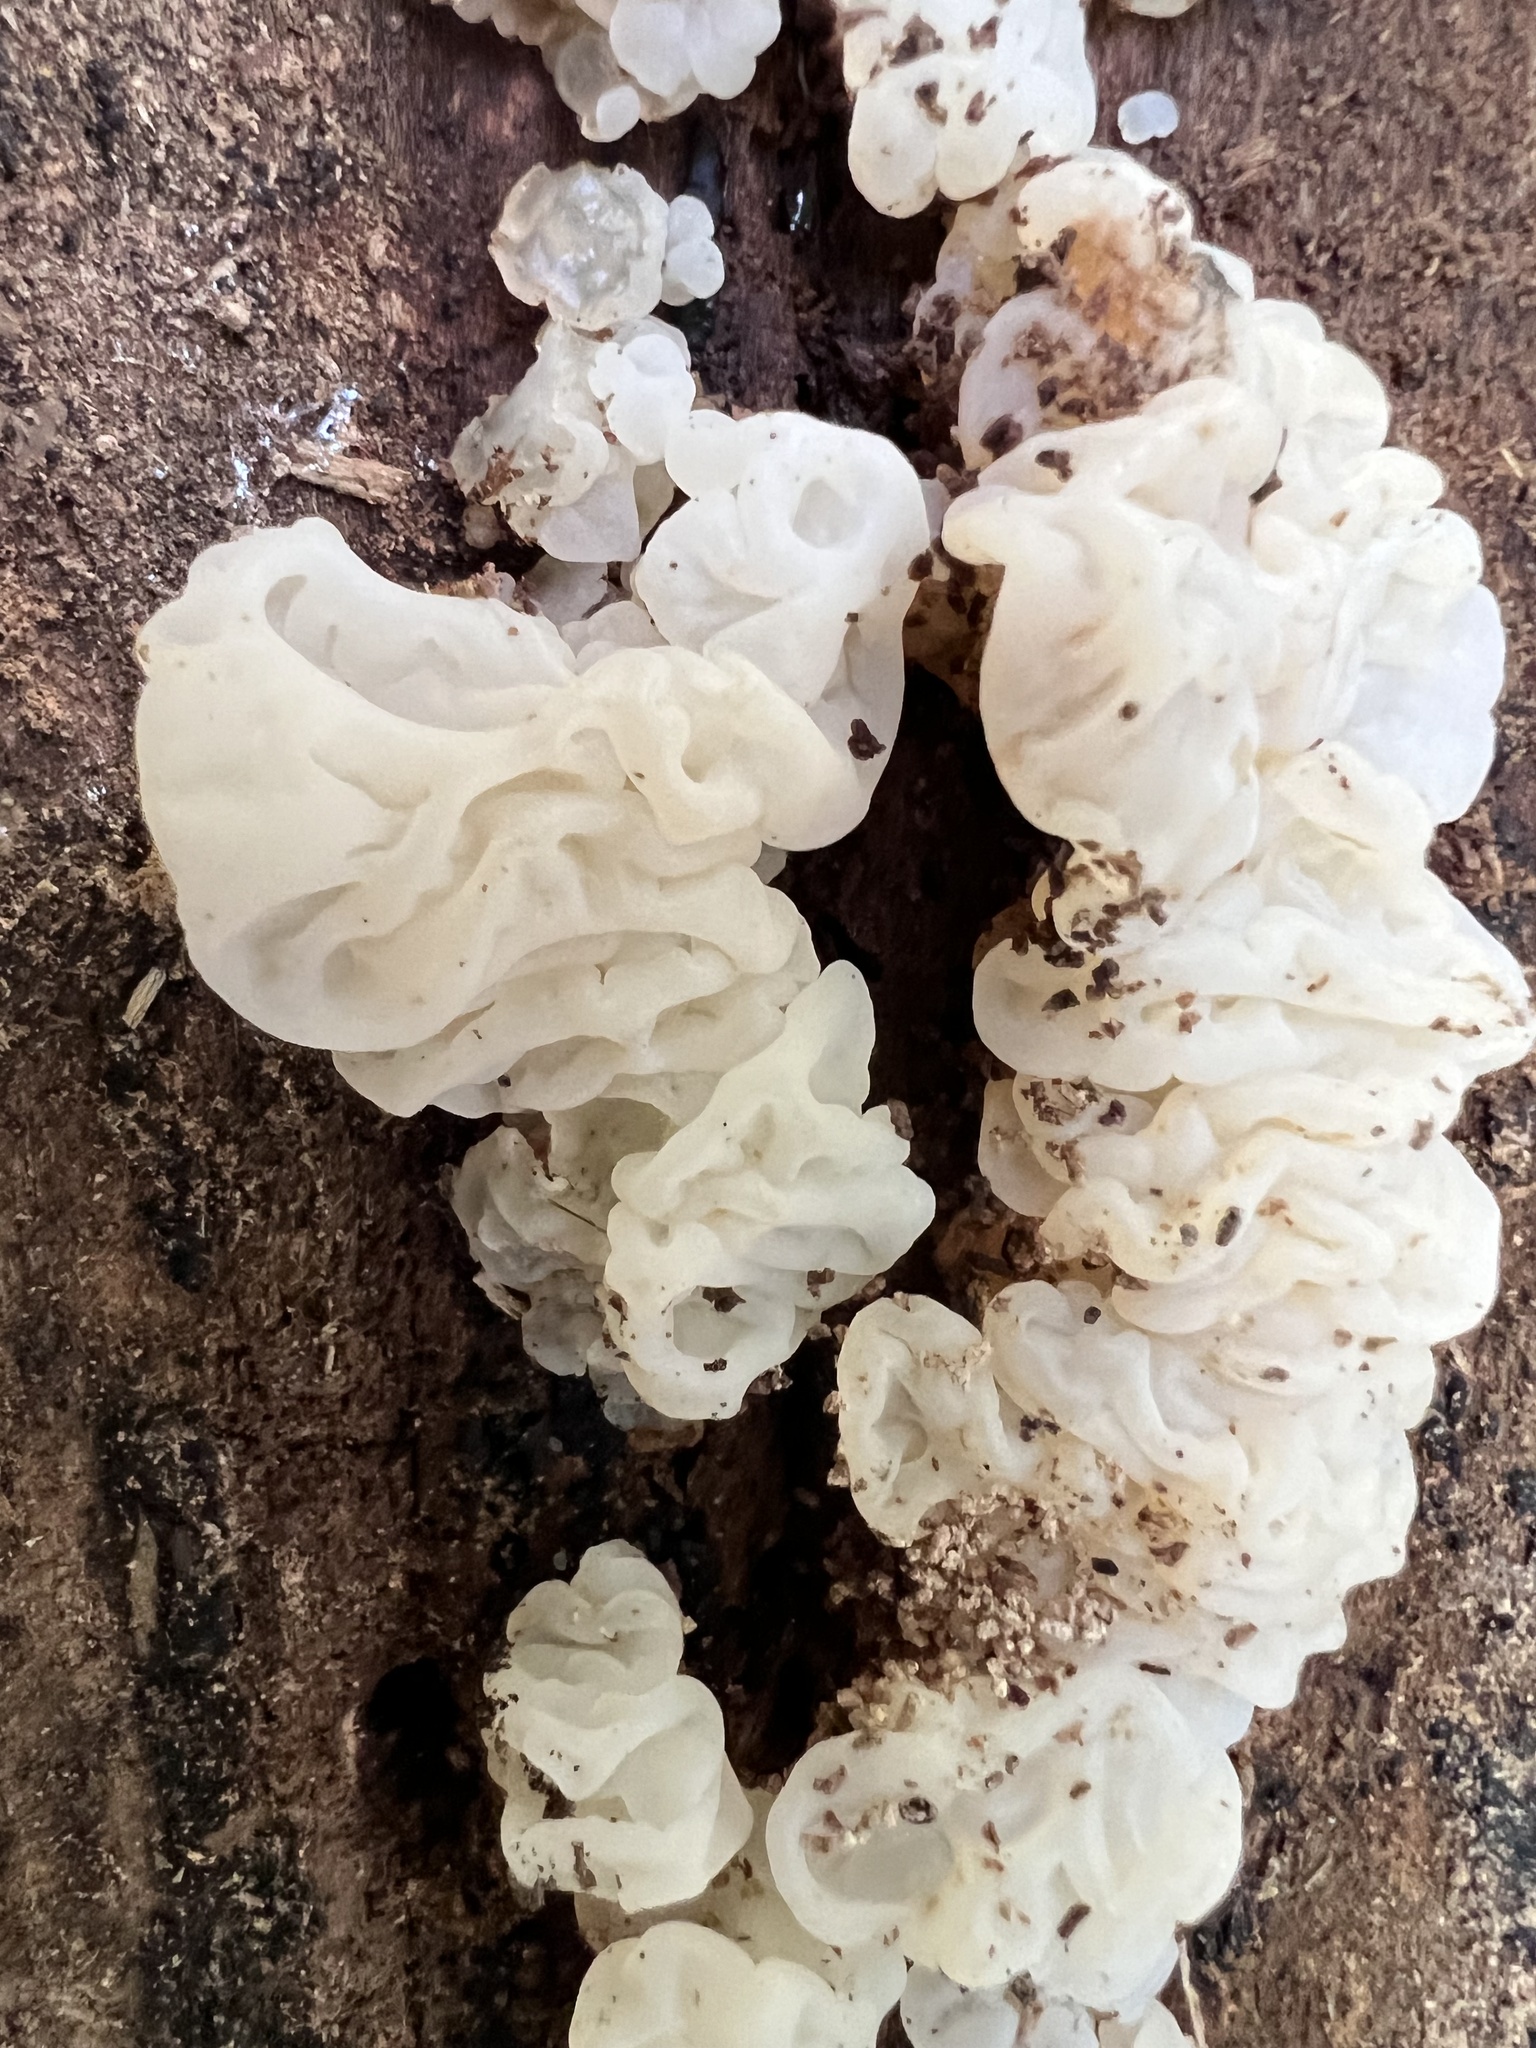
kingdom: Fungi
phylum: Basidiomycota
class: Agaricomycetes
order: Auriculariales
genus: Ductifera
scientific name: Ductifera pululahuana
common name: White jelly fungus
